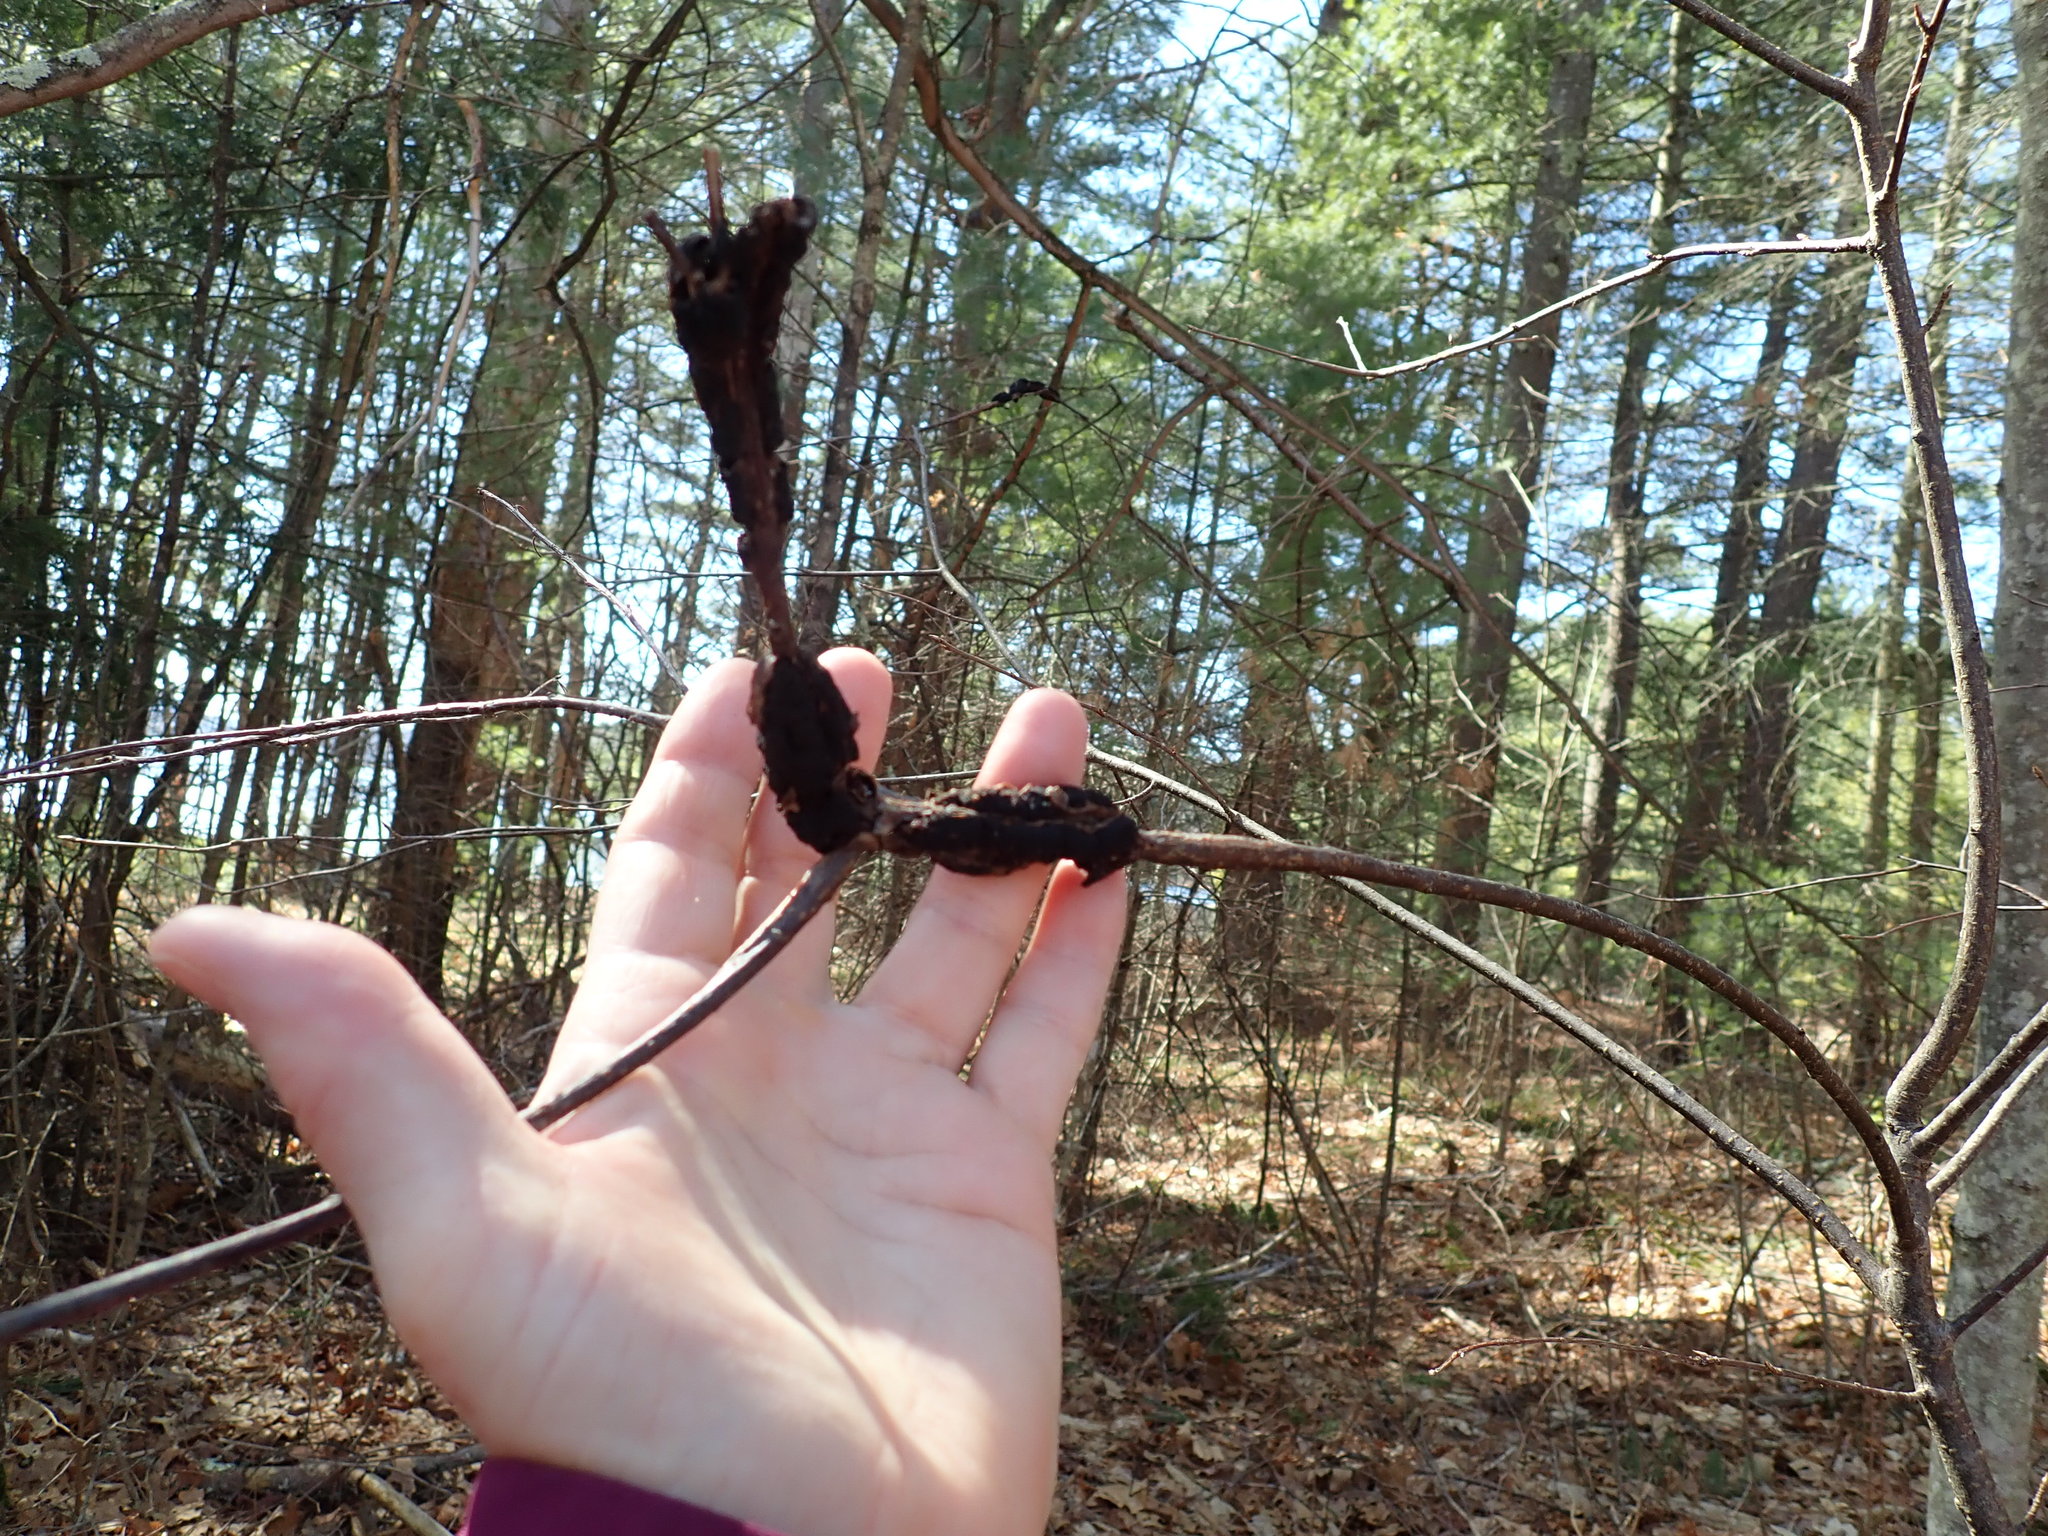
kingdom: Fungi
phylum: Ascomycota
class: Dothideomycetes
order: Venturiales
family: Venturiaceae
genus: Apiosporina
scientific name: Apiosporina morbosa
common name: Black knot
